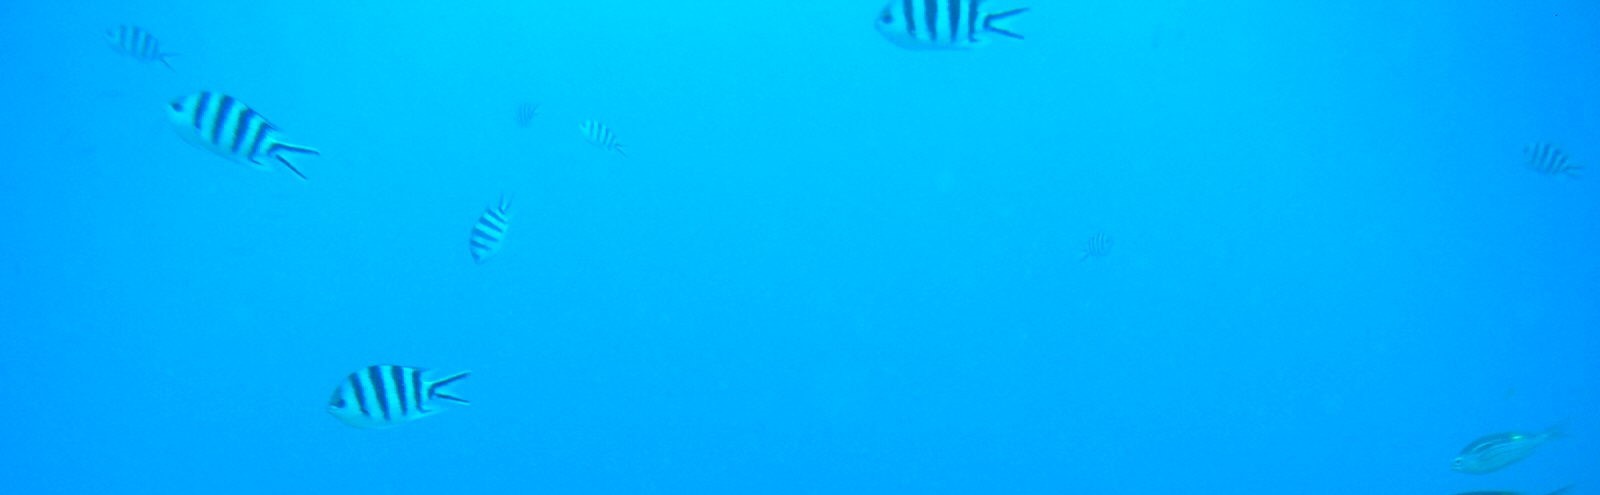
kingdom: Animalia
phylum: Chordata
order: Perciformes
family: Pomacentridae
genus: Abudefduf
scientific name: Abudefduf sexfasciatus
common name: Scissortail sergeant
